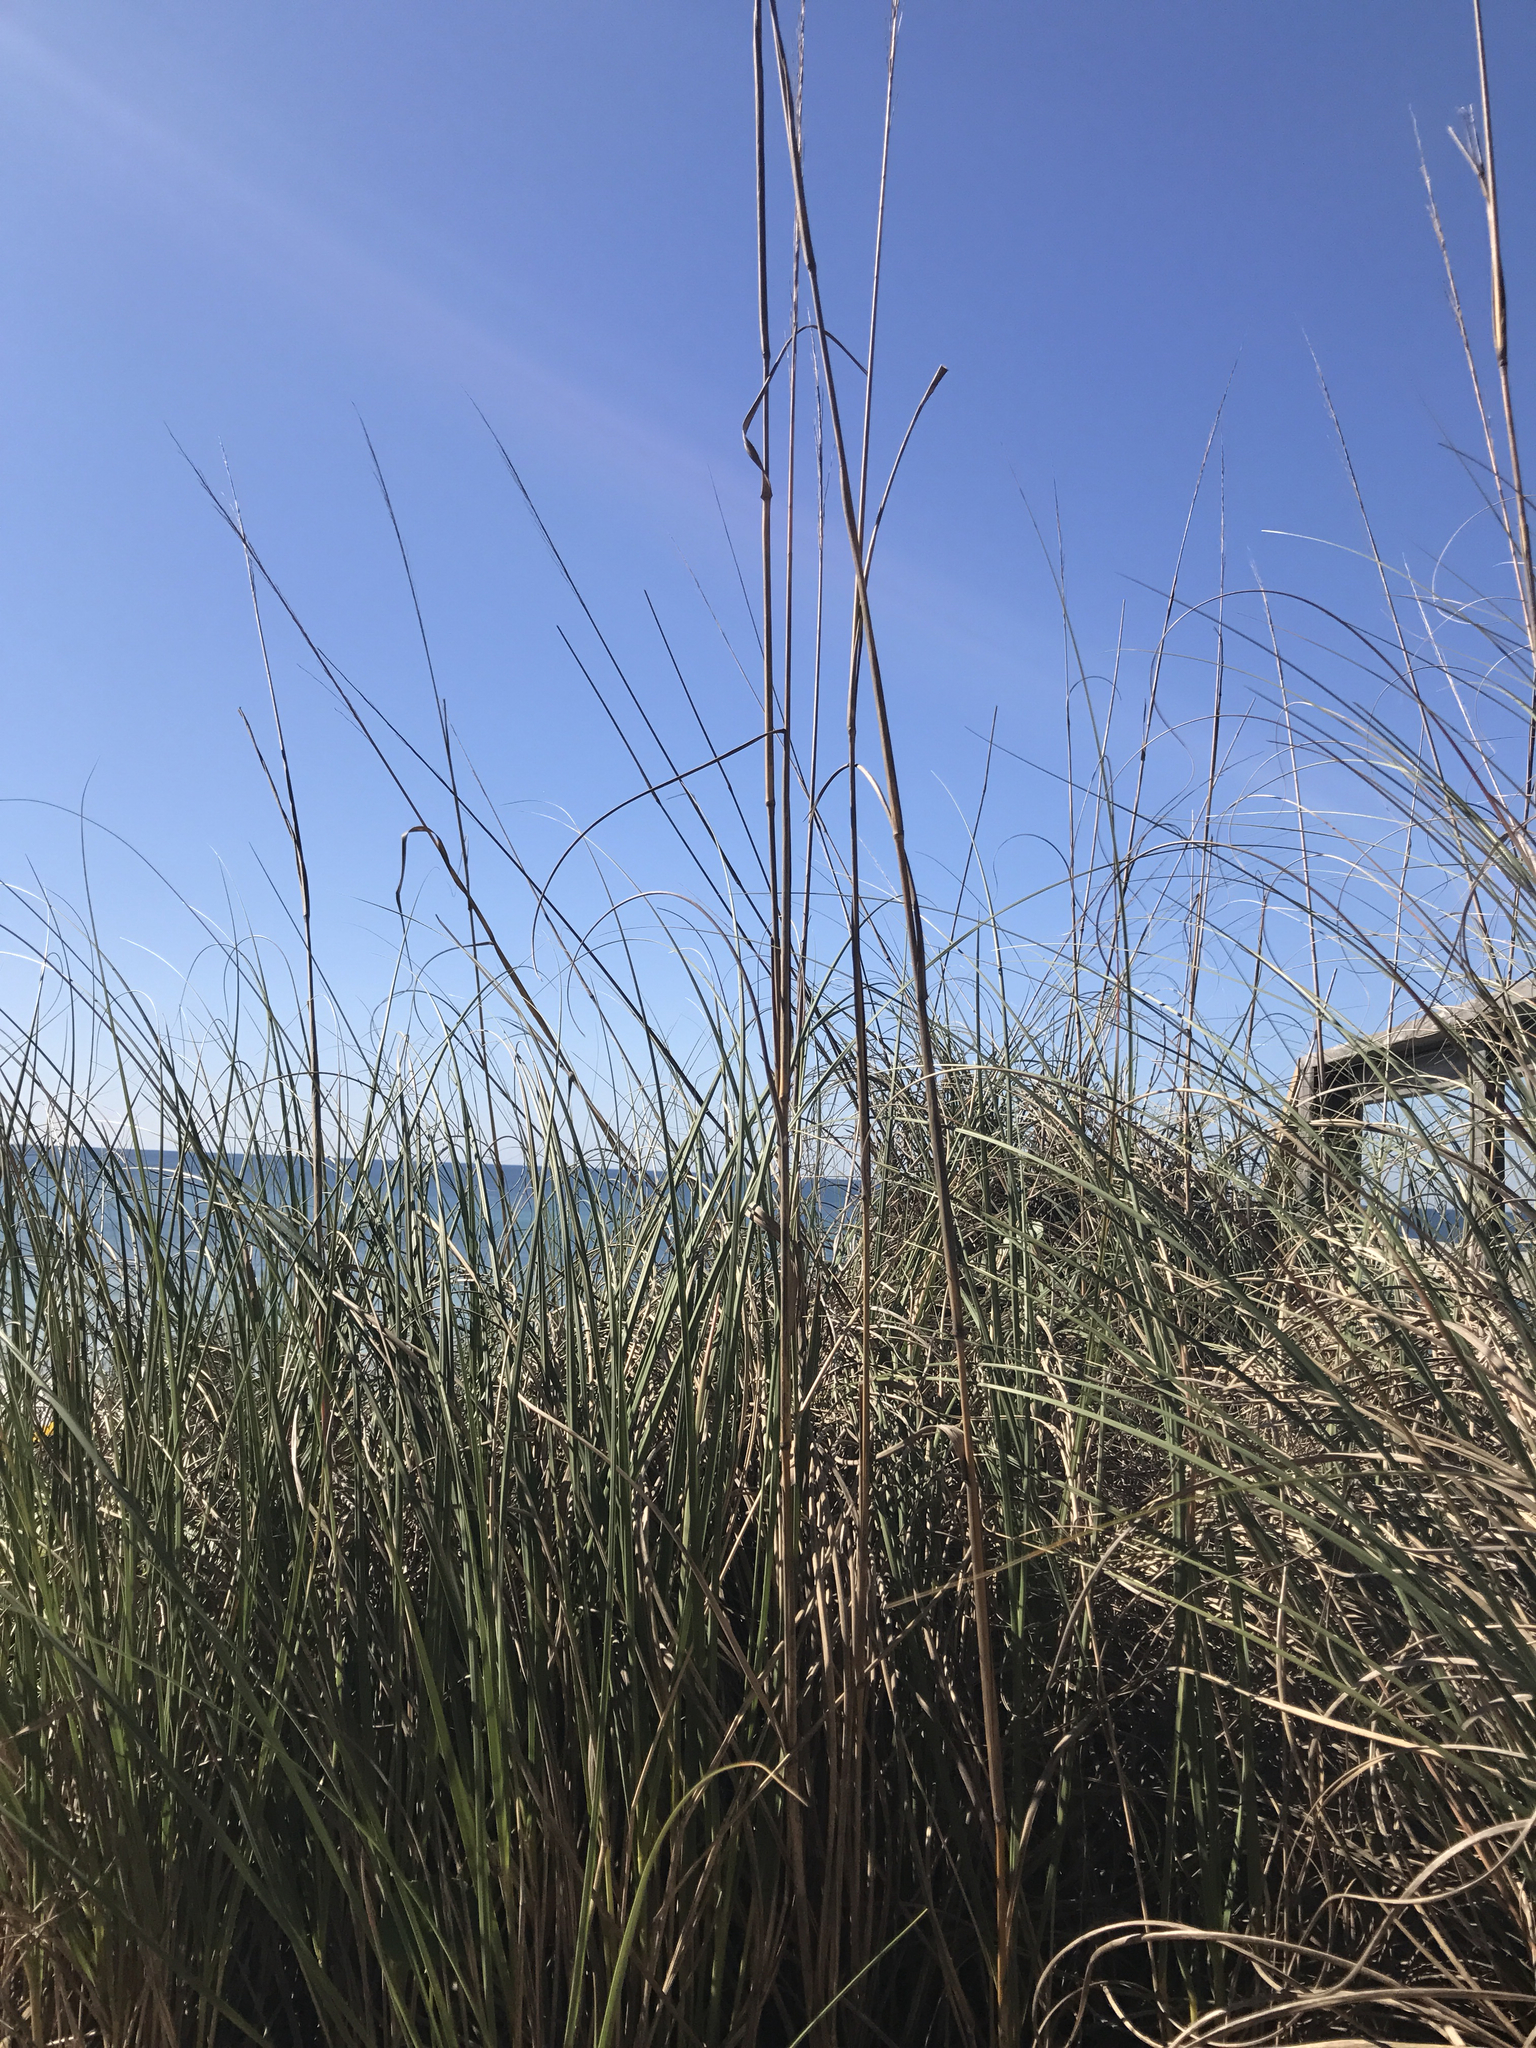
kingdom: Plantae
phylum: Tracheophyta
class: Liliopsida
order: Poales
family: Poaceae
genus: Uniola
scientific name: Uniola paniculata
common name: Seaside-oats
